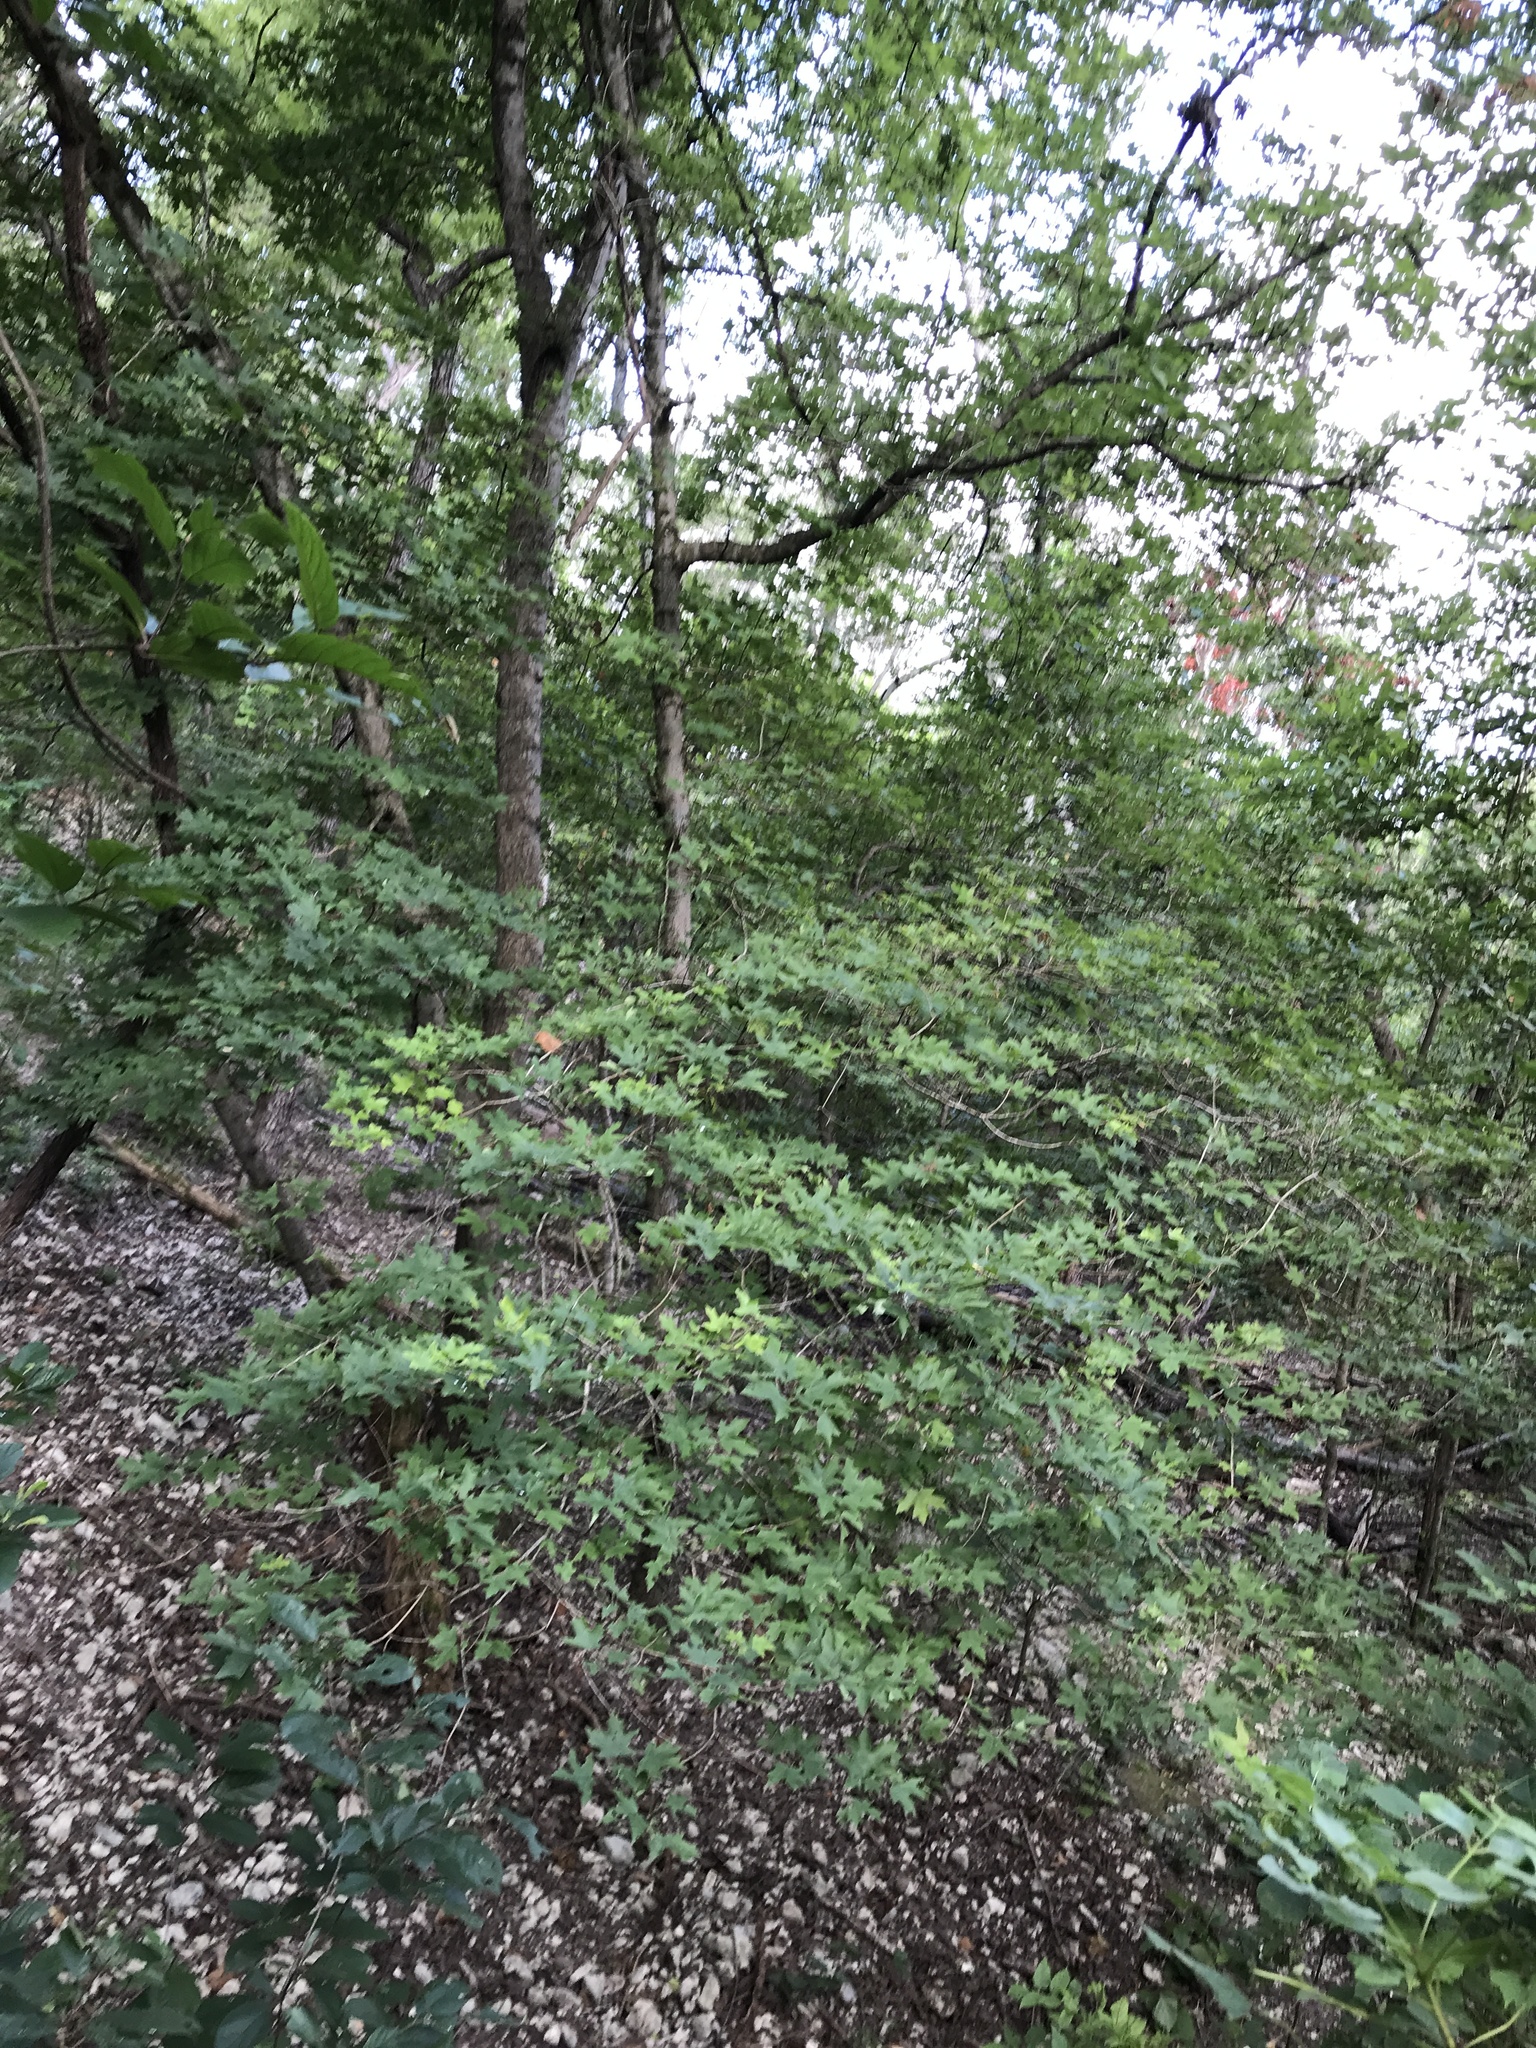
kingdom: Plantae
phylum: Tracheophyta
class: Magnoliopsida
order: Sapindales
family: Sapindaceae
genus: Acer
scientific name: Acer grandidentatum
